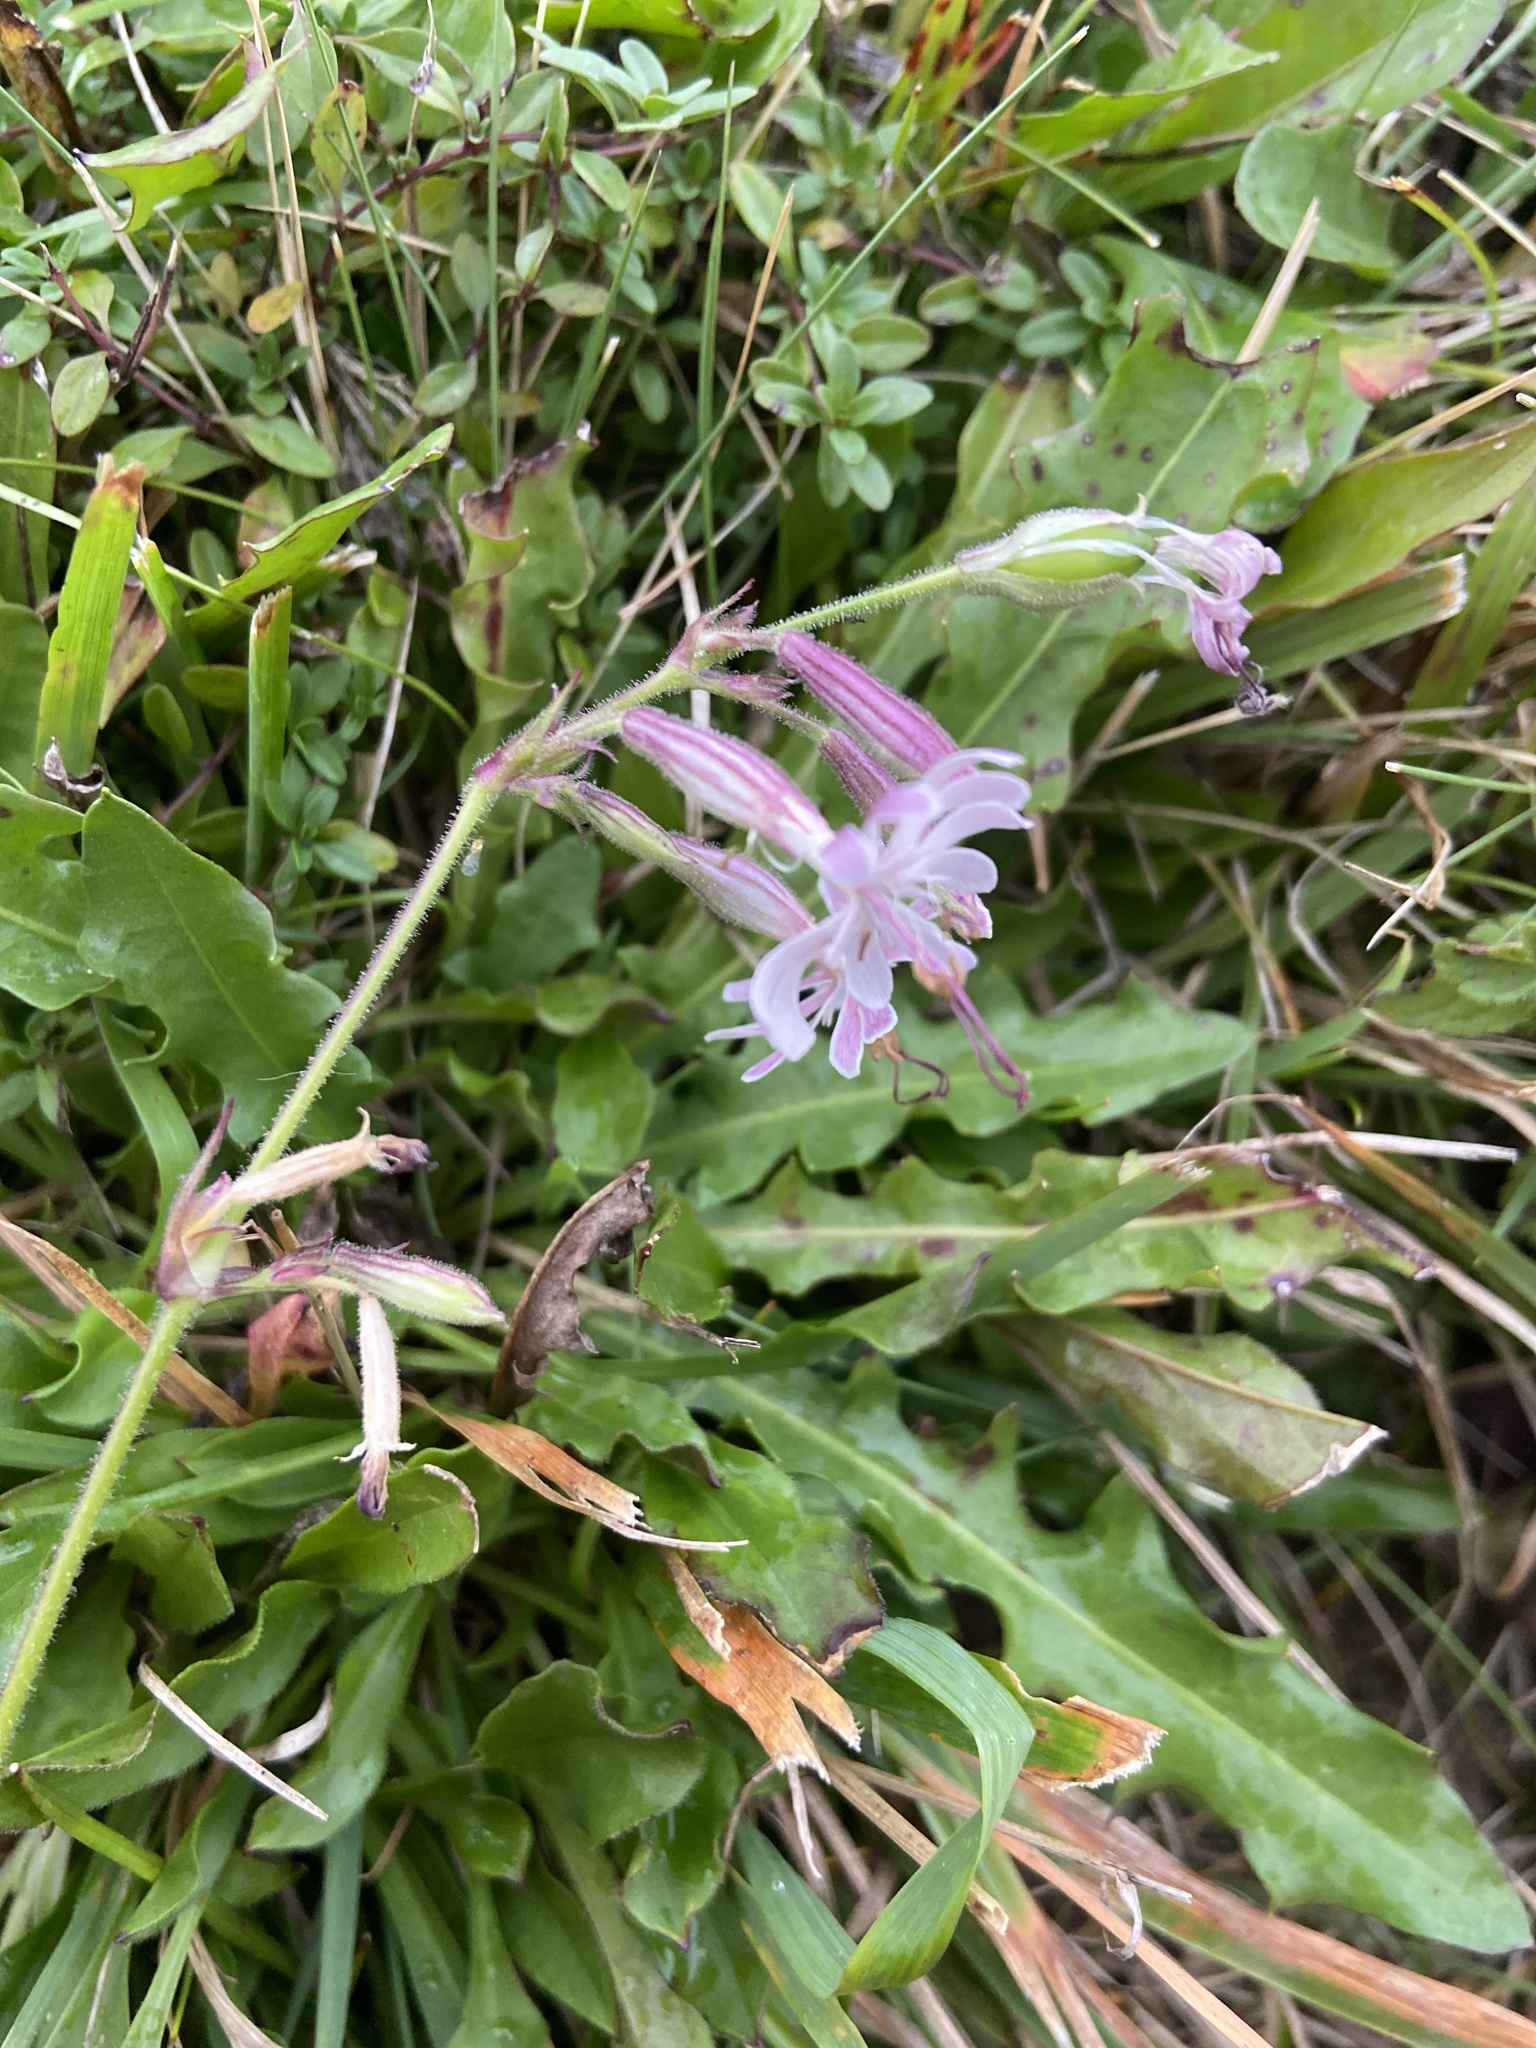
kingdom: Plantae
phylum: Tracheophyta
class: Magnoliopsida
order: Caryophyllales
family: Caryophyllaceae
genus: Silene
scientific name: Silene nutans
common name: Nottingham catchfly
